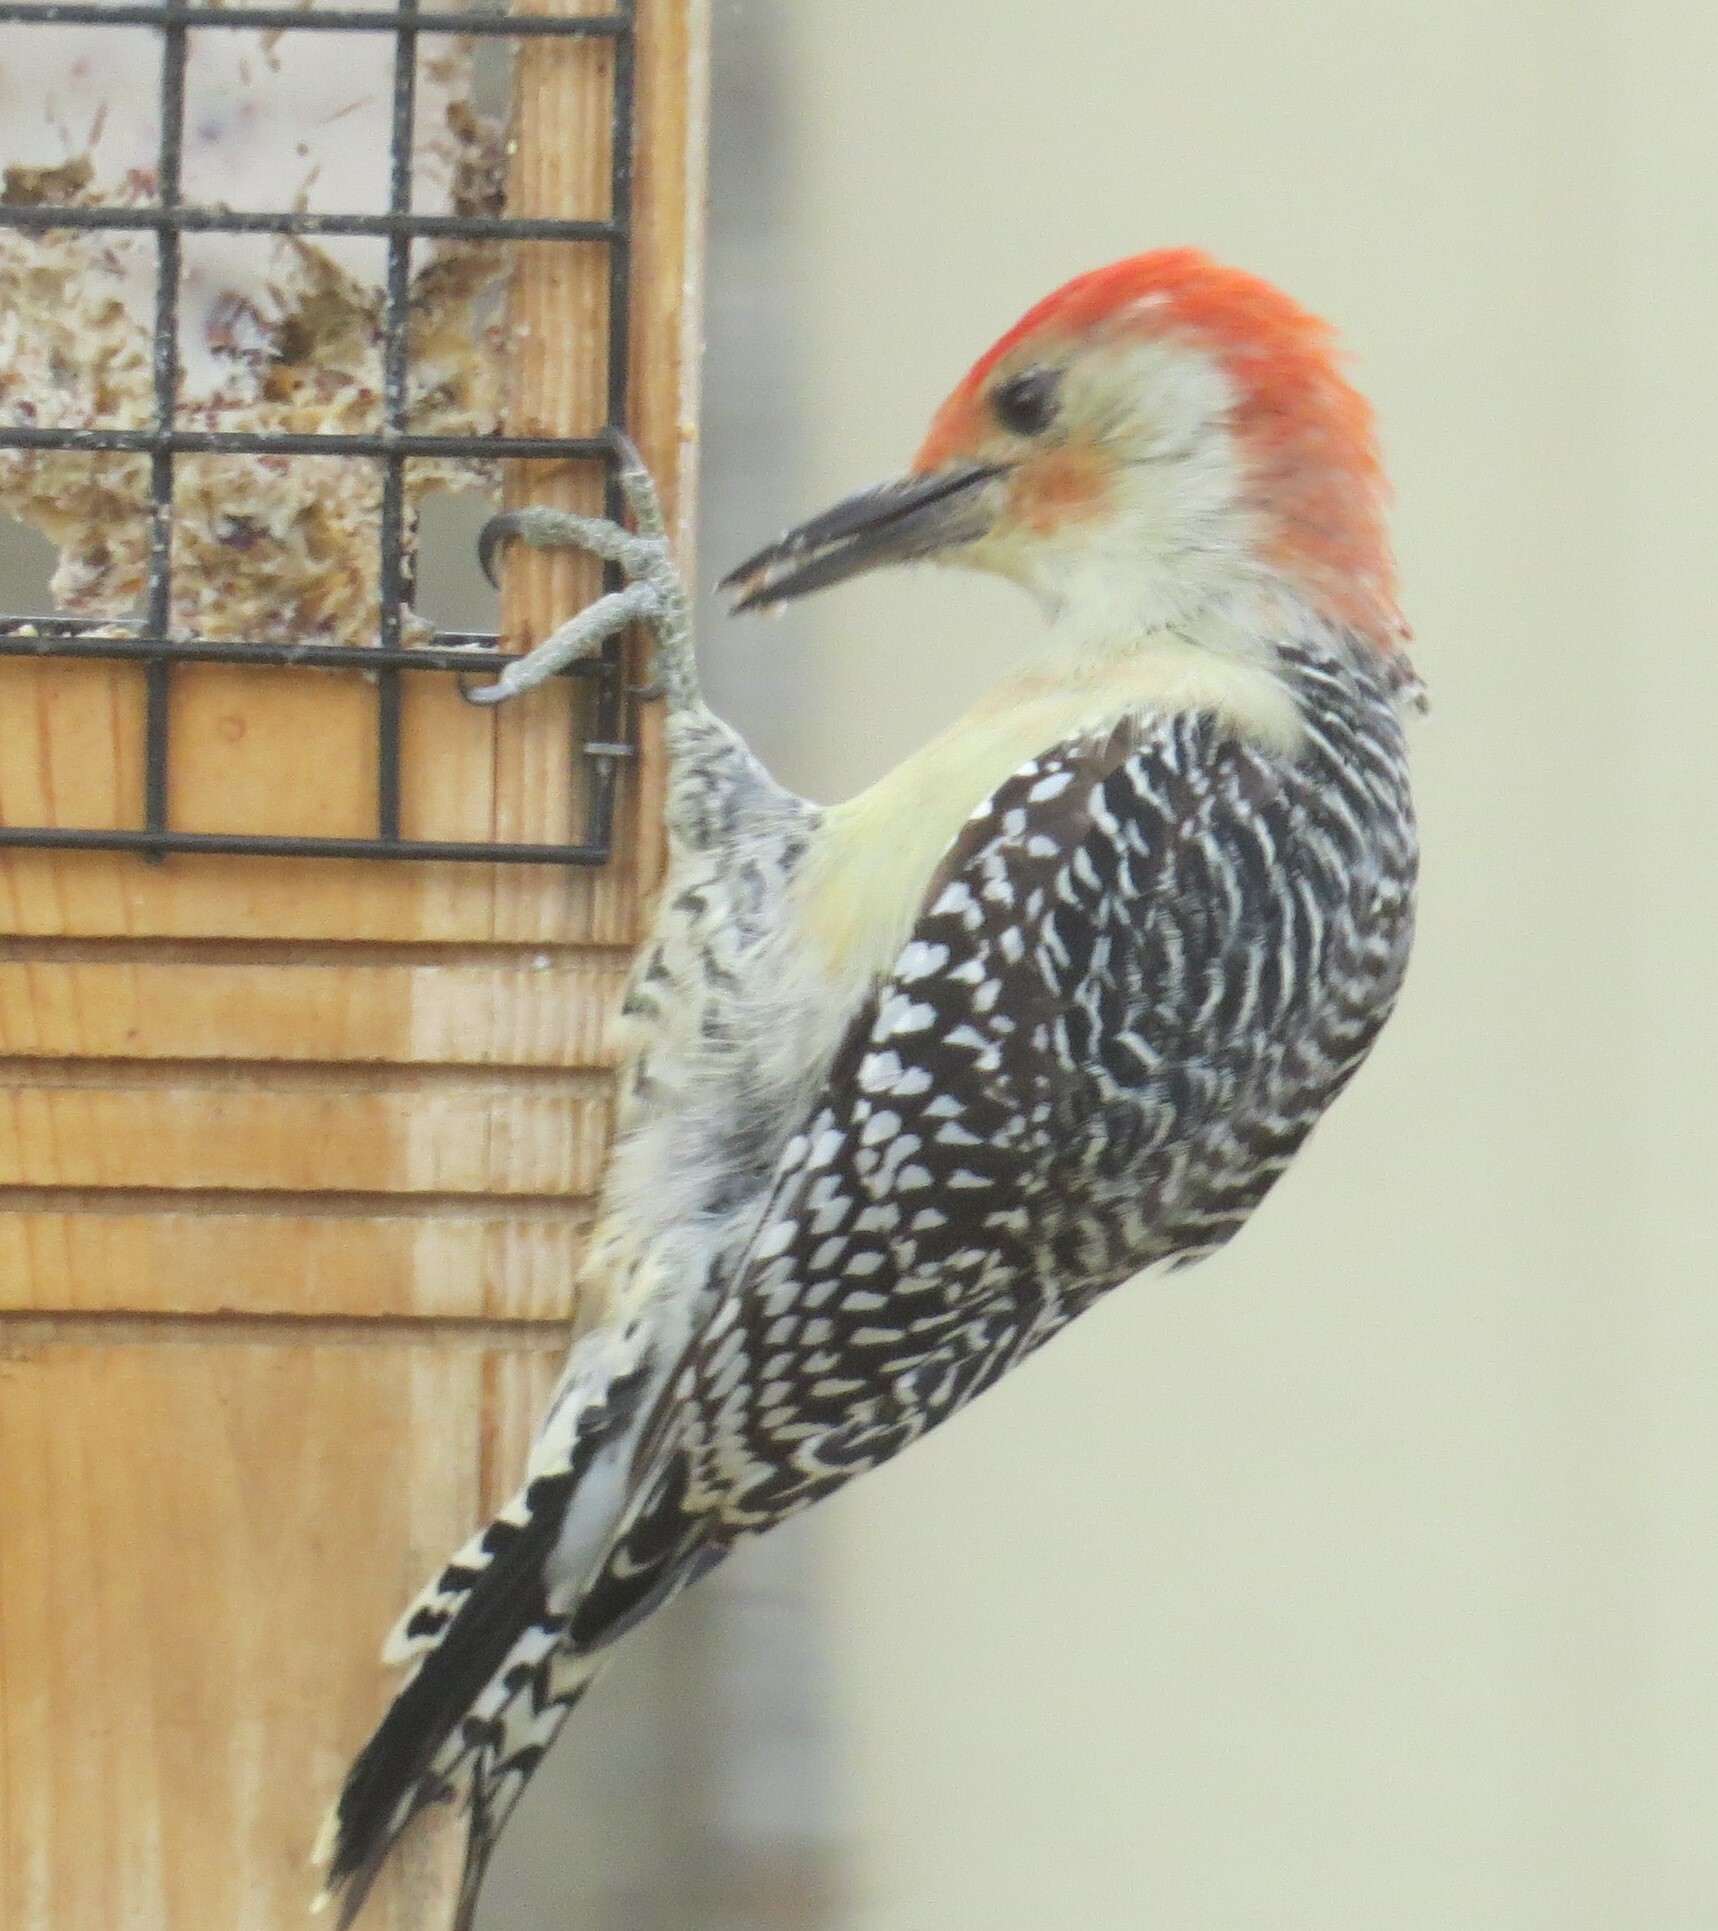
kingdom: Animalia
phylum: Chordata
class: Aves
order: Piciformes
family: Picidae
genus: Melanerpes
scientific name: Melanerpes carolinus
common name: Red-bellied woodpecker
